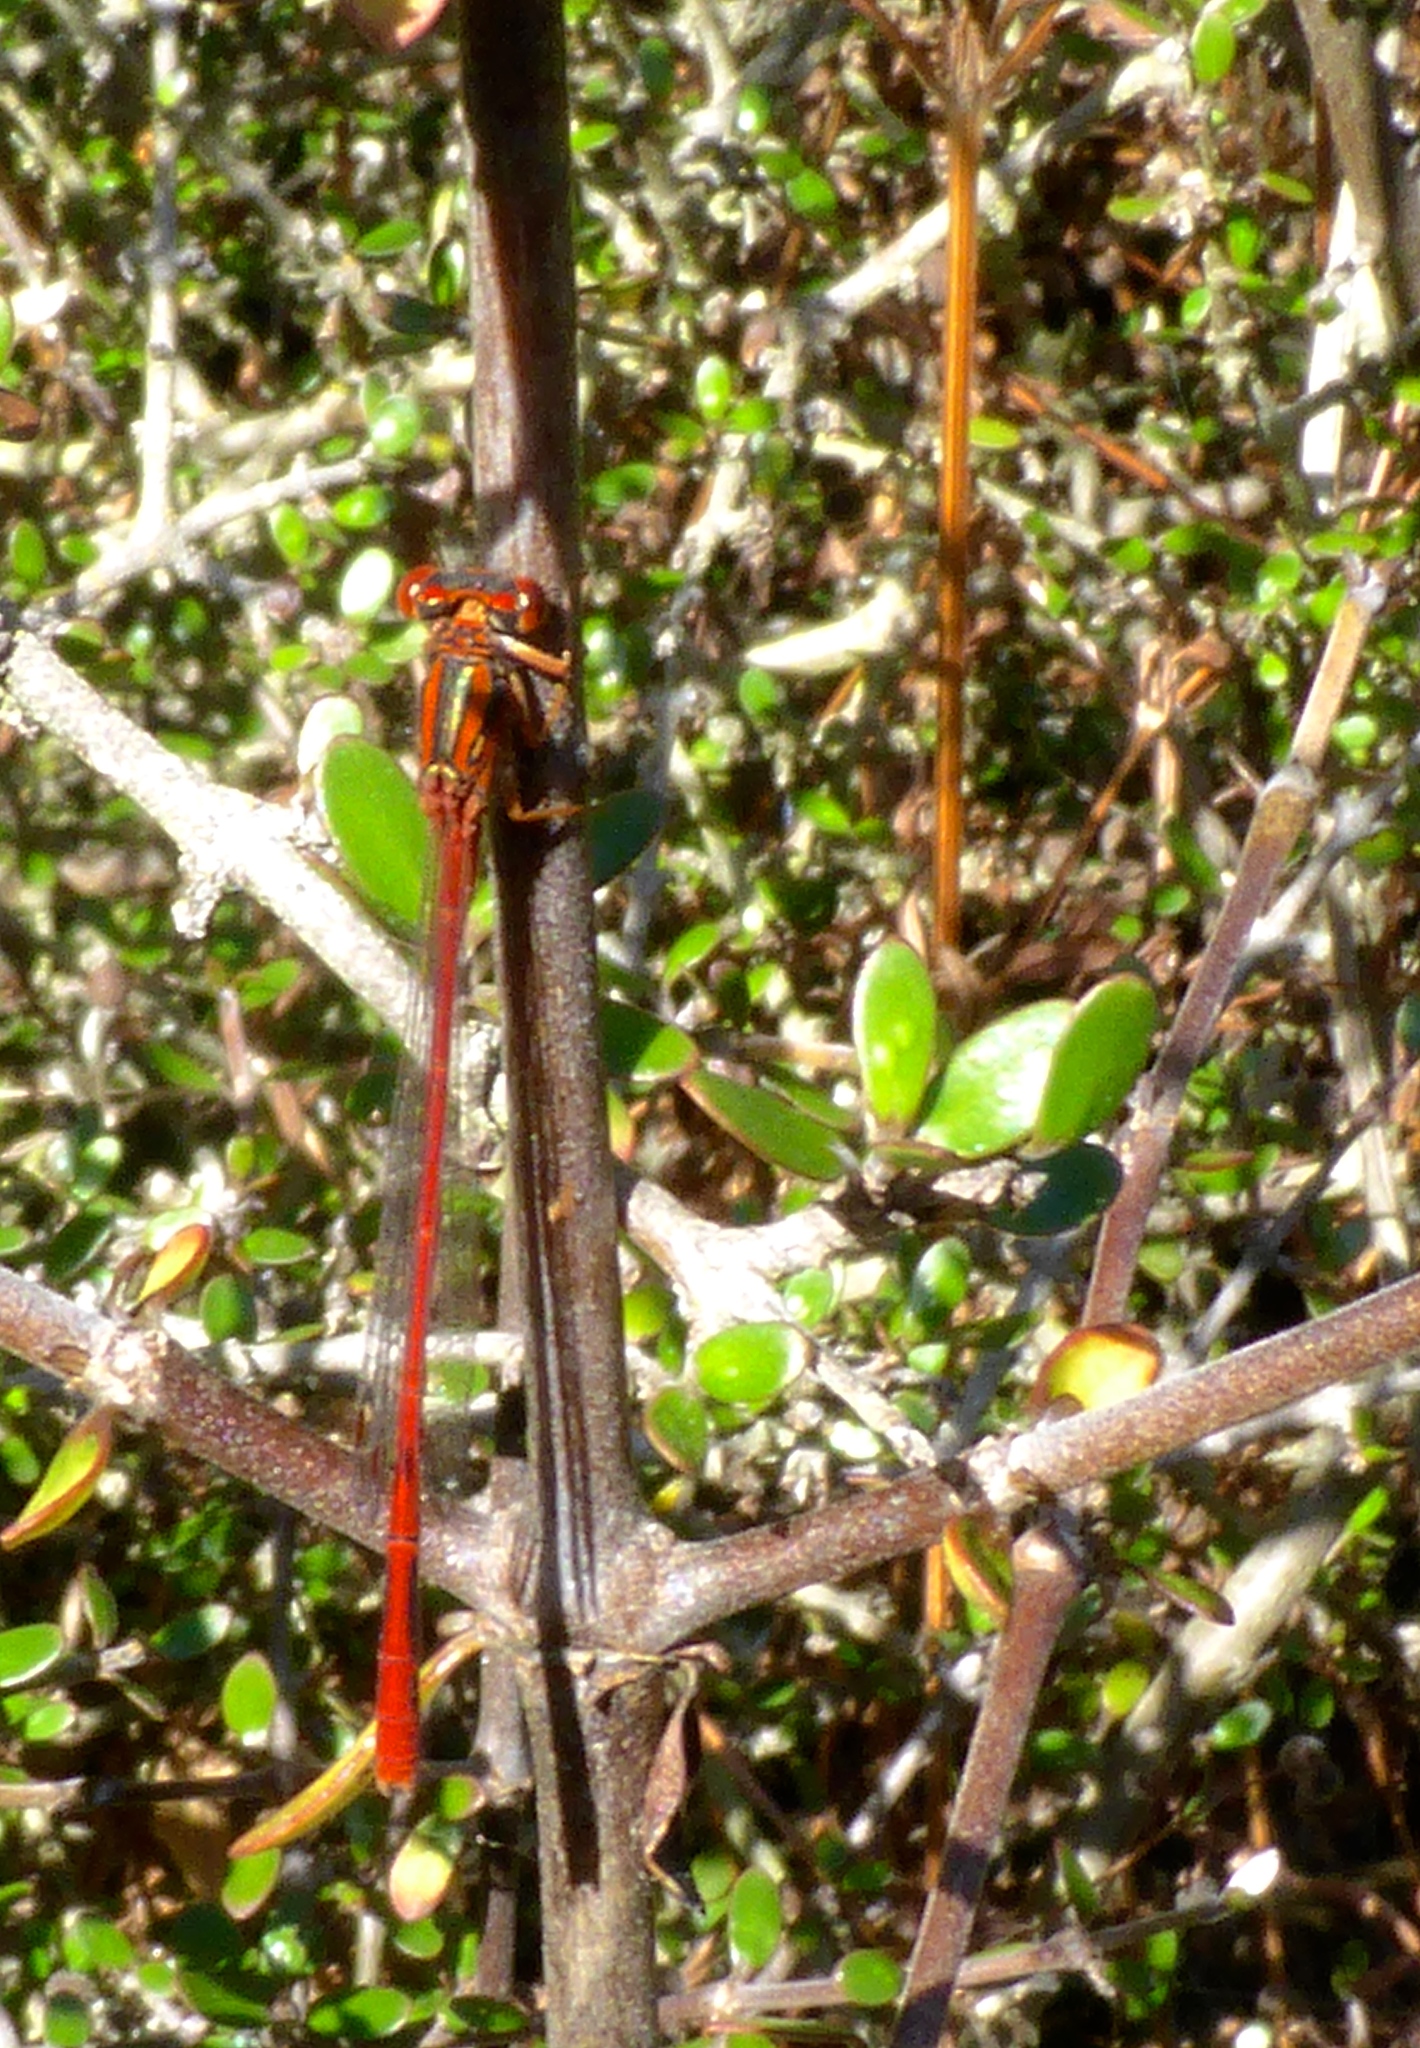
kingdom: Animalia
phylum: Arthropoda
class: Insecta
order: Odonata
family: Coenagrionidae
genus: Xanthocnemis
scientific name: Xanthocnemis zealandica
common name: Common redcoat damselfly
